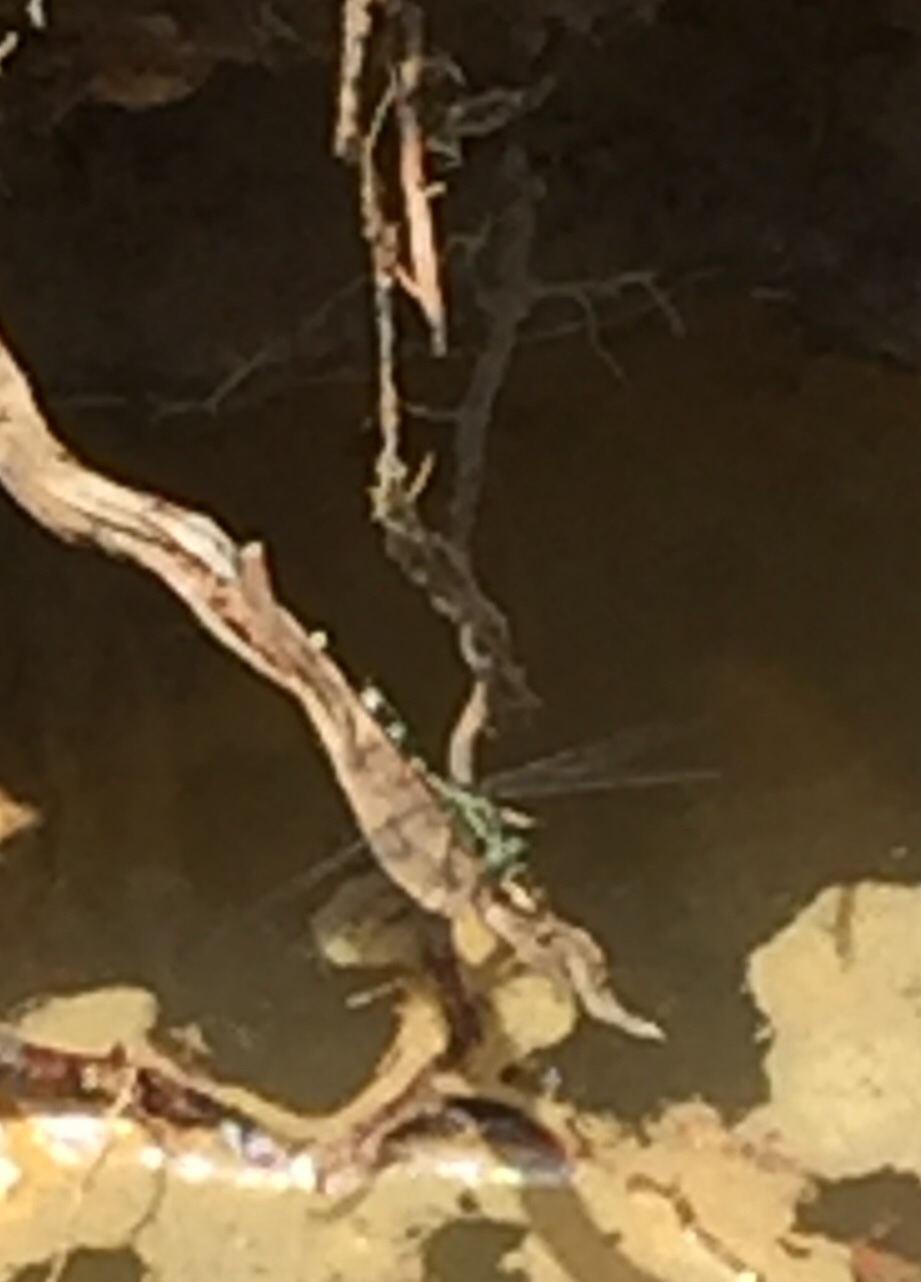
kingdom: Animalia
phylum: Arthropoda
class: Insecta
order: Odonata
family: Libellulidae
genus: Orthetrum
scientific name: Orthetrum sabina
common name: Slender skimmer
